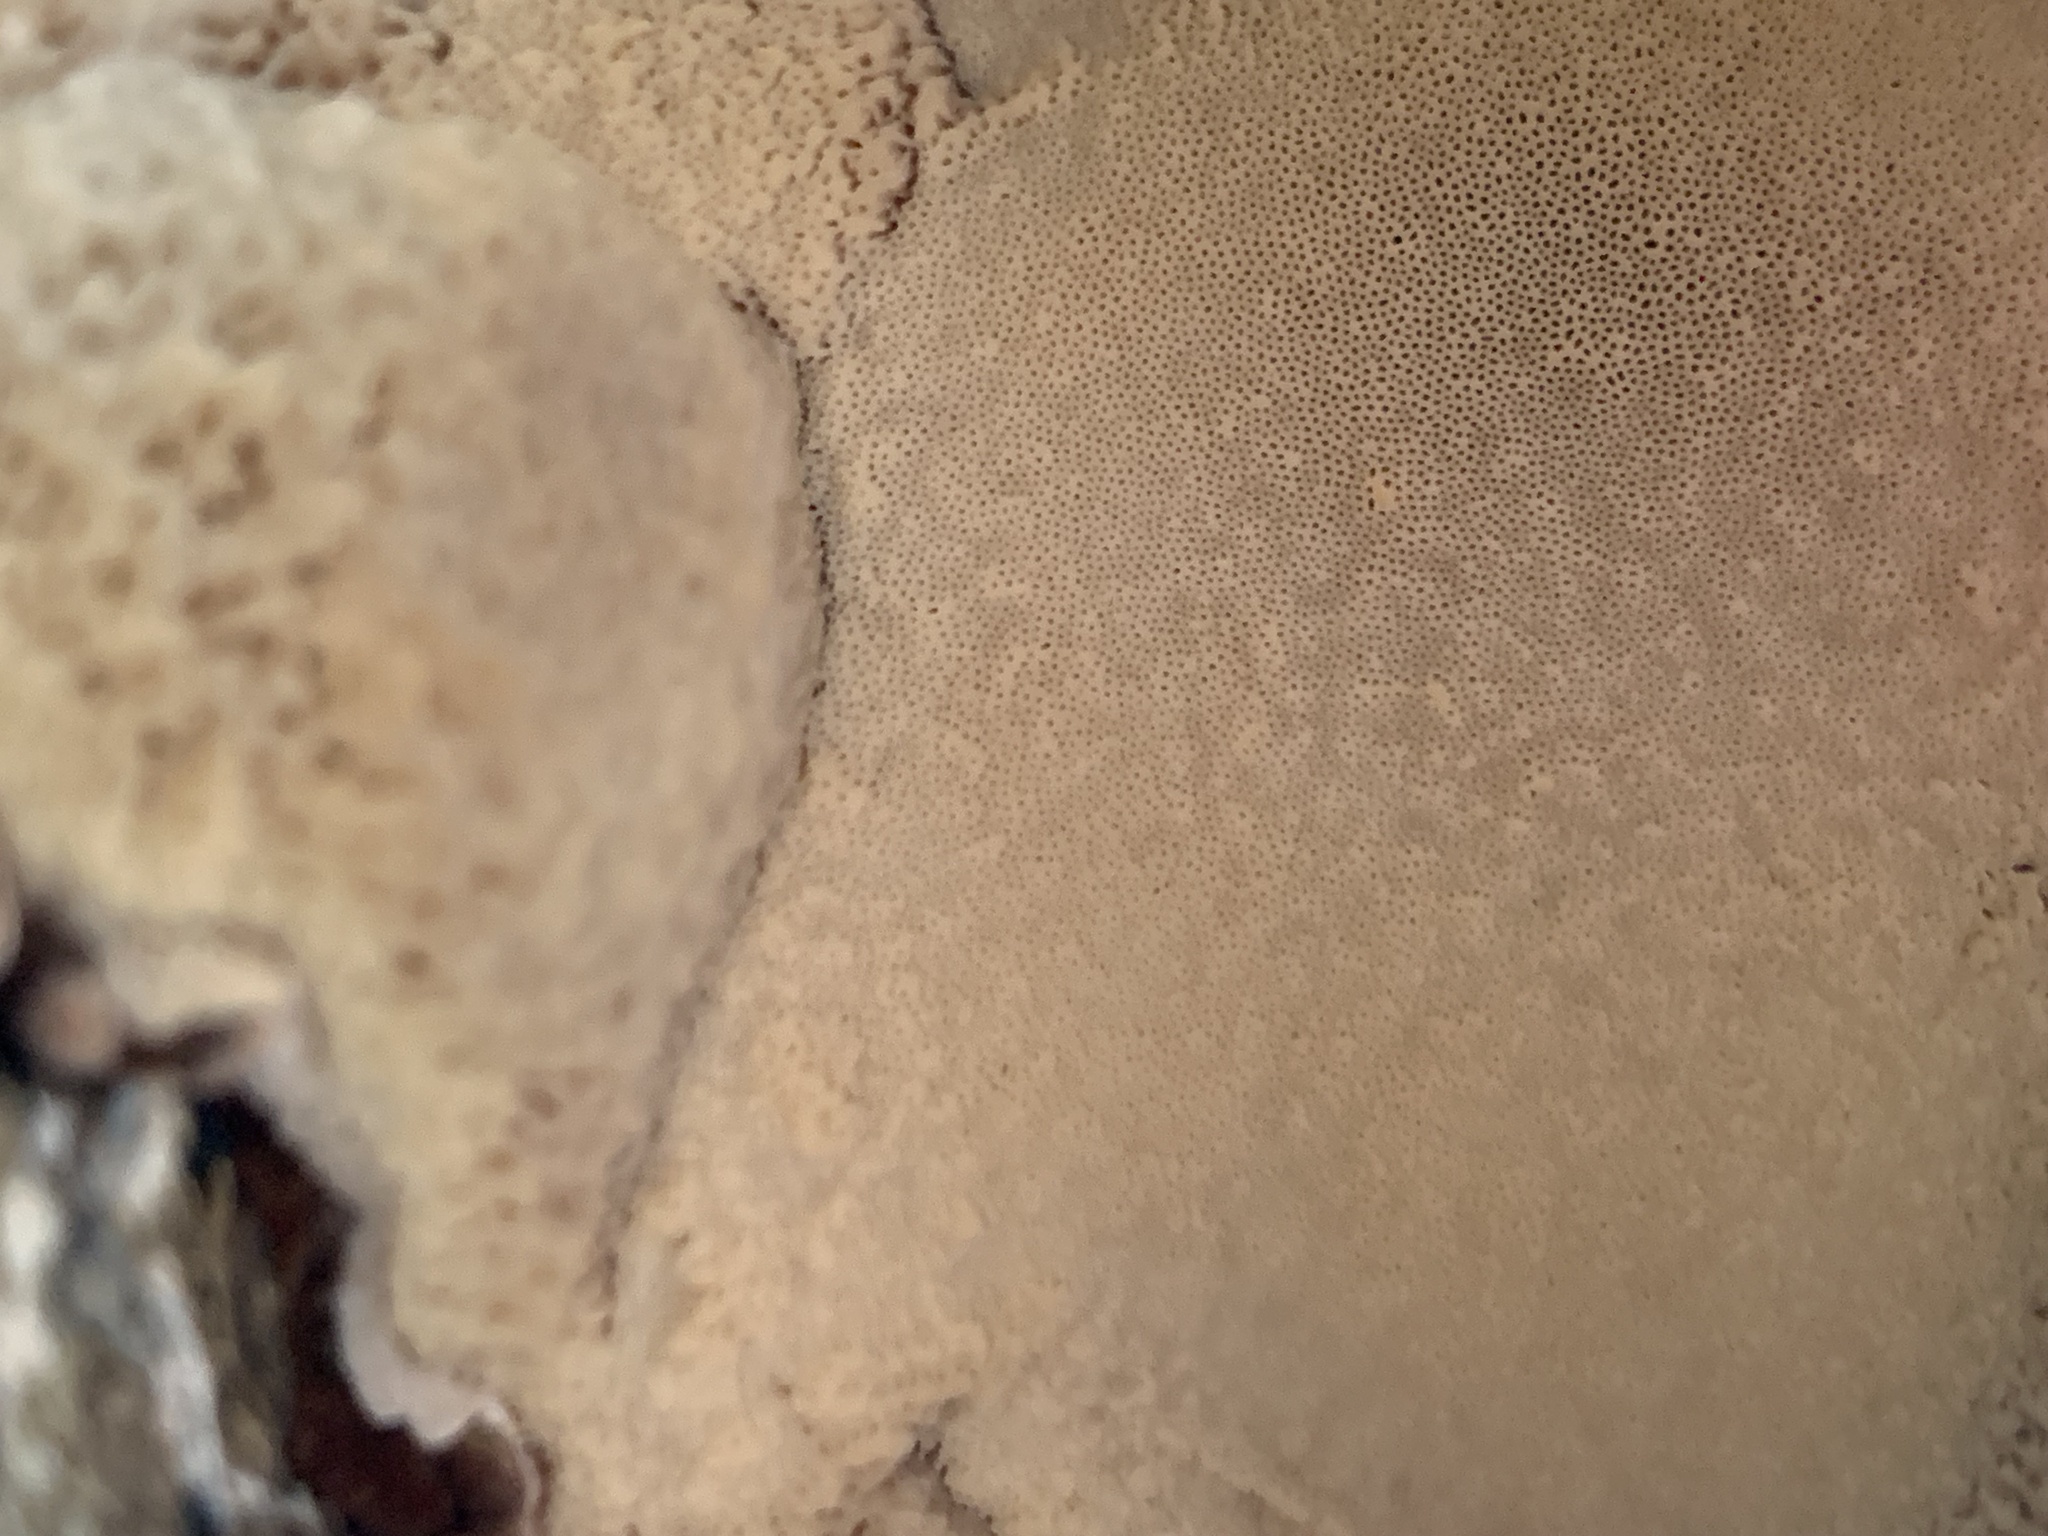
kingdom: Fungi
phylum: Basidiomycota
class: Agaricomycetes
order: Polyporales
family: Ischnodermataceae
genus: Ischnoderma
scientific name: Ischnoderma resinosum
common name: Resinous polypore
